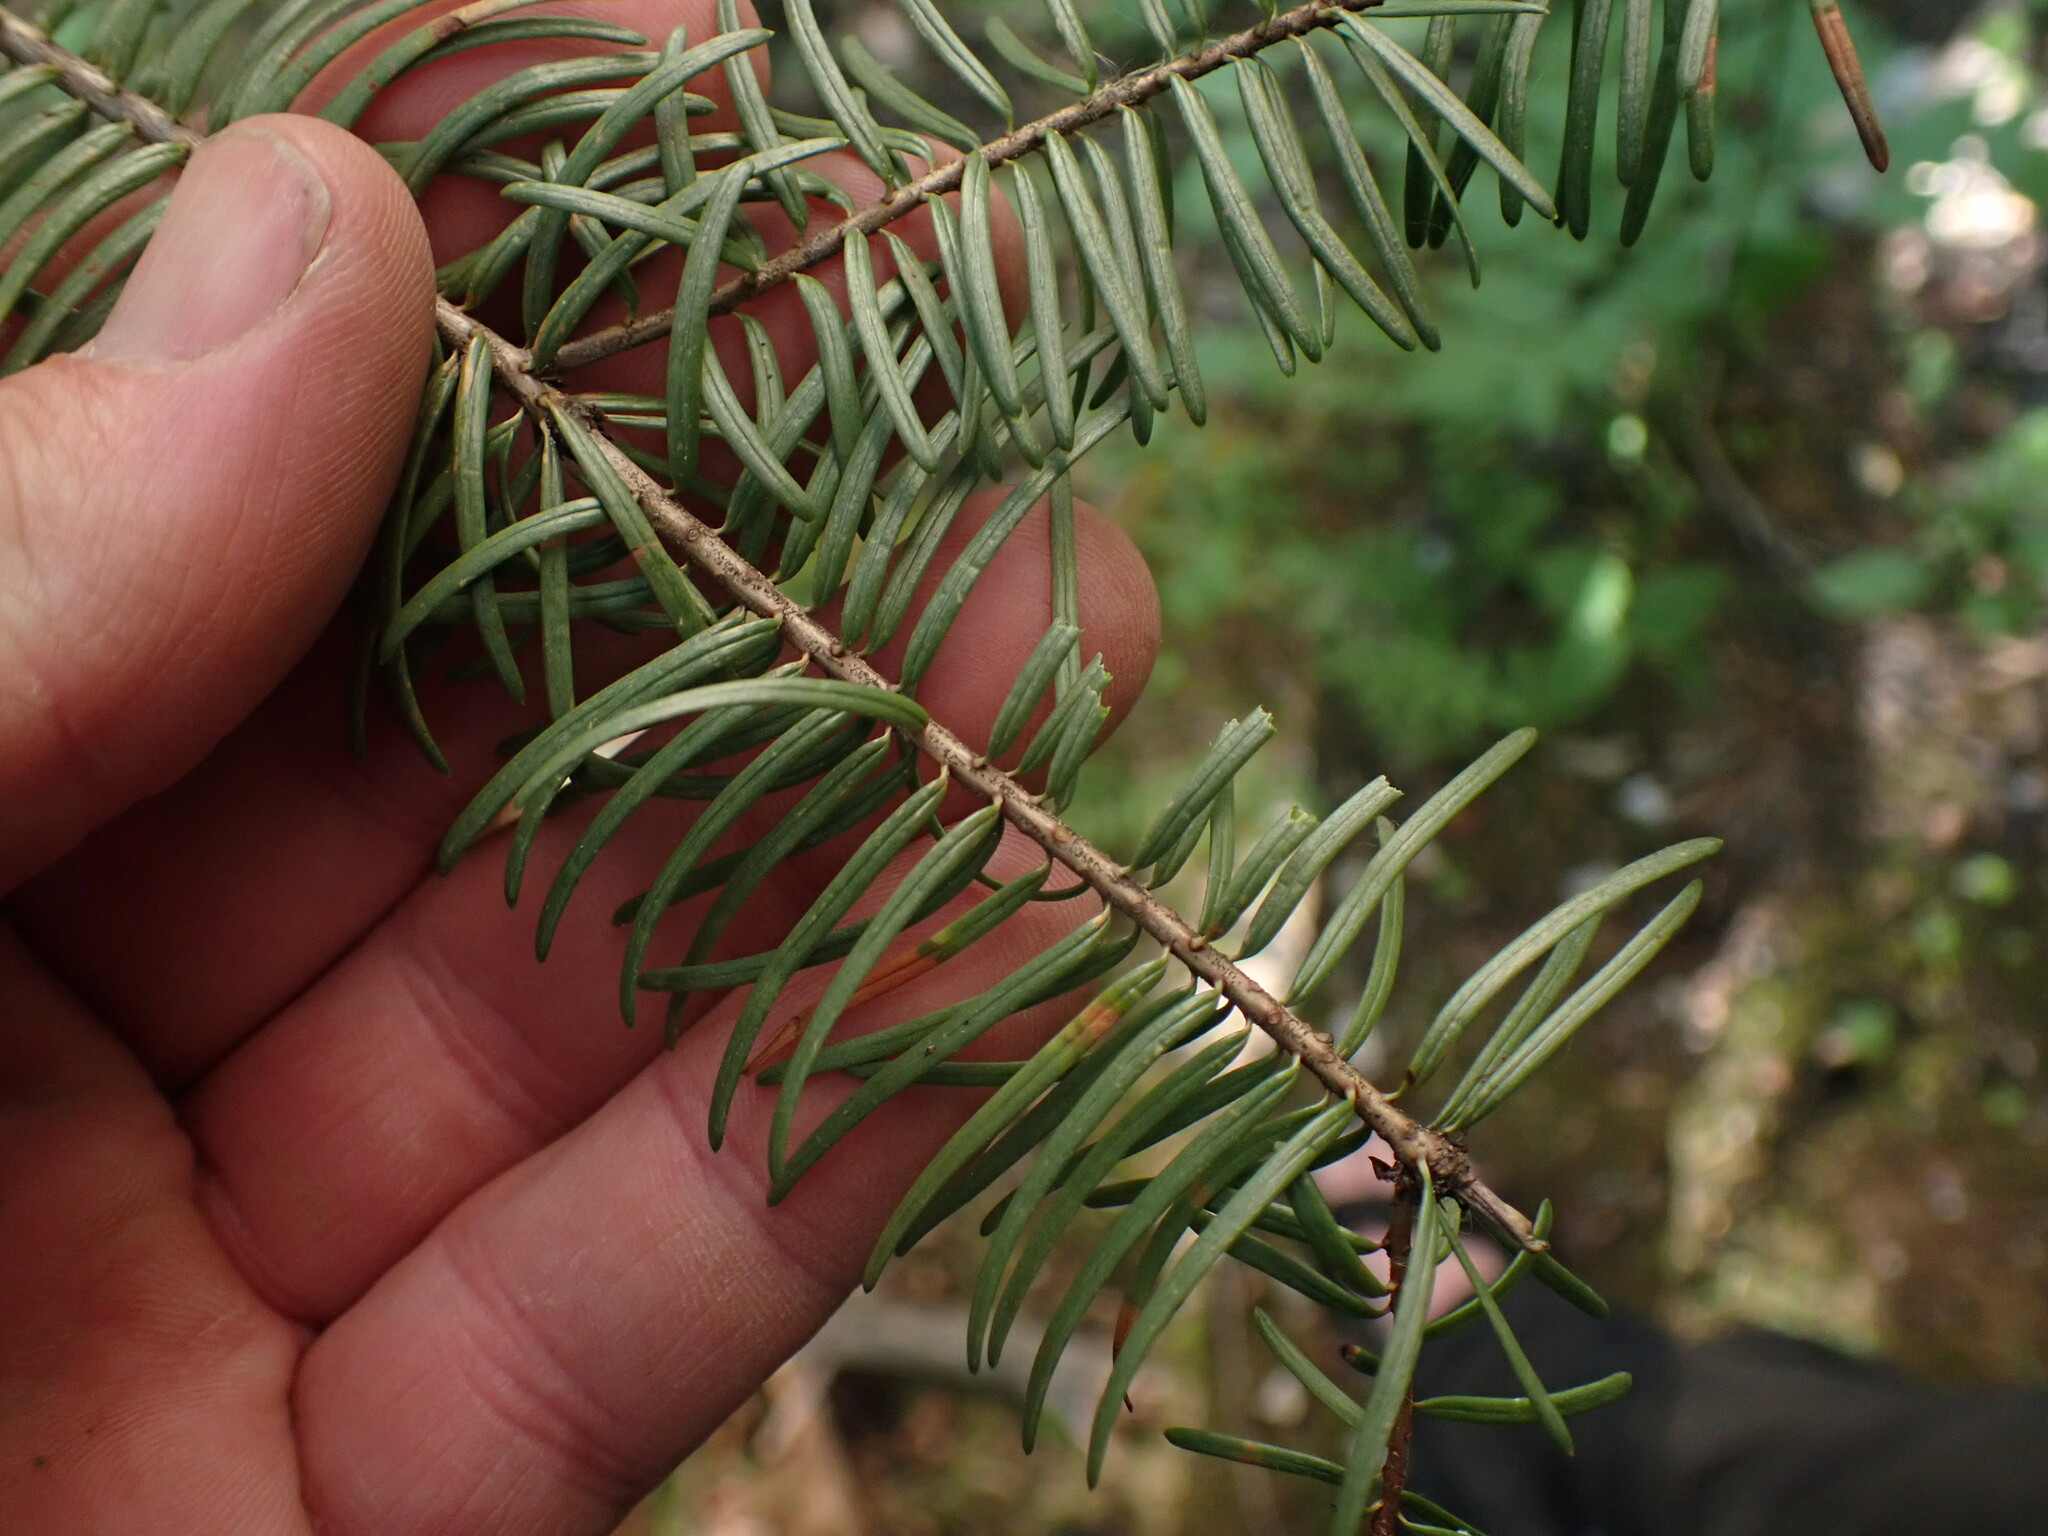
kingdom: Plantae
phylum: Tracheophyta
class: Pinopsida
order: Pinales
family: Pinaceae
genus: Pseudotsuga
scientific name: Pseudotsuga menziesii
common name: Douglas fir
